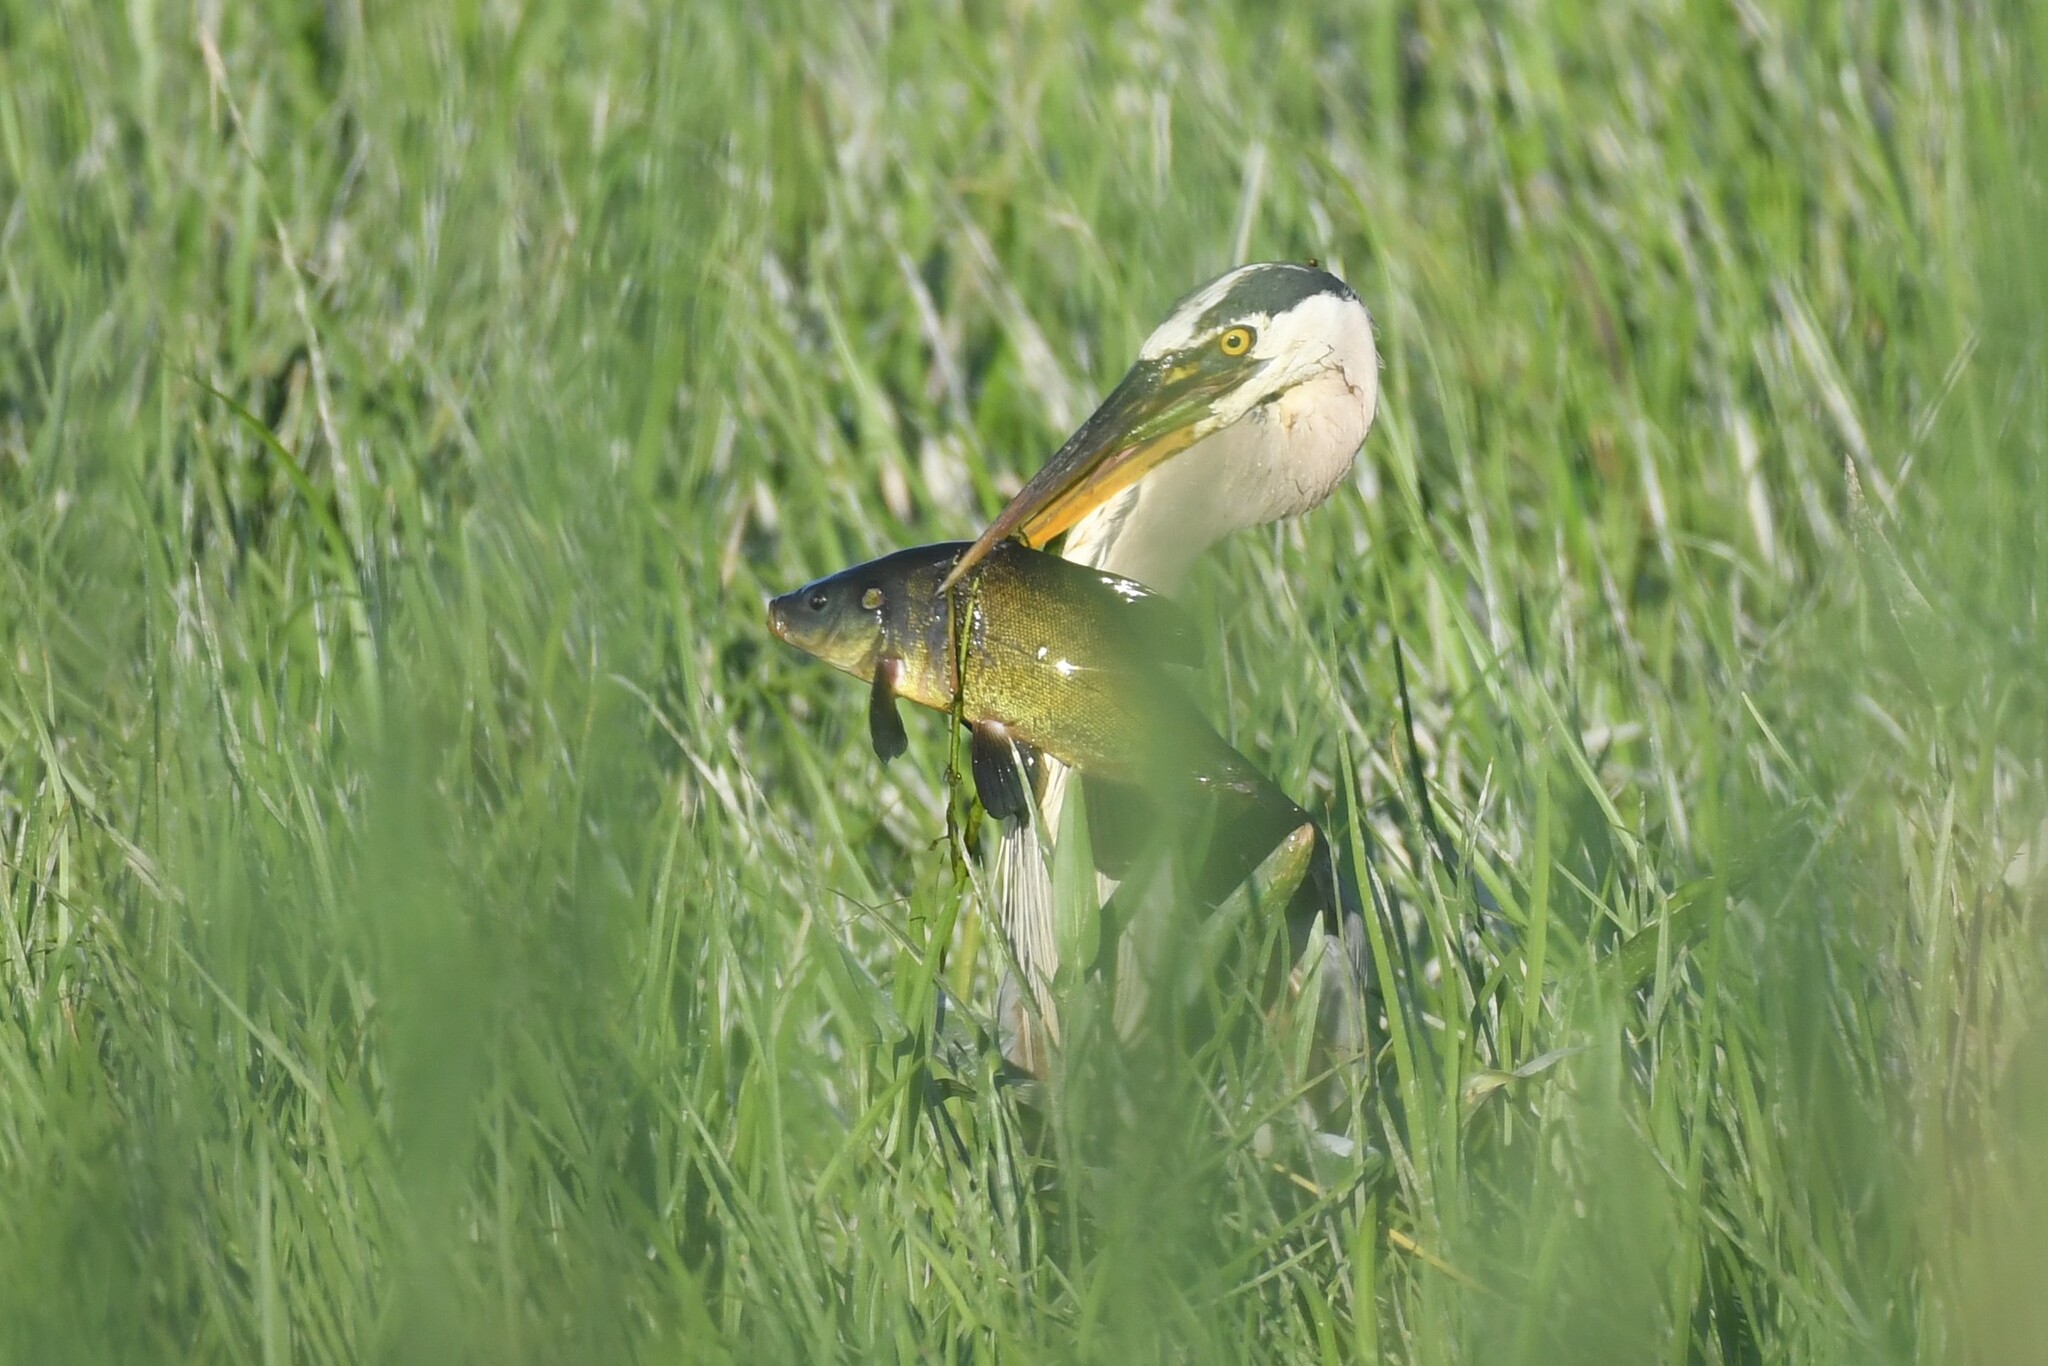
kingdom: Animalia
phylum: Chordata
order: Cypriniformes
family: Cyprinidae
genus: Tinca
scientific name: Tinca tinca
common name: Tench
